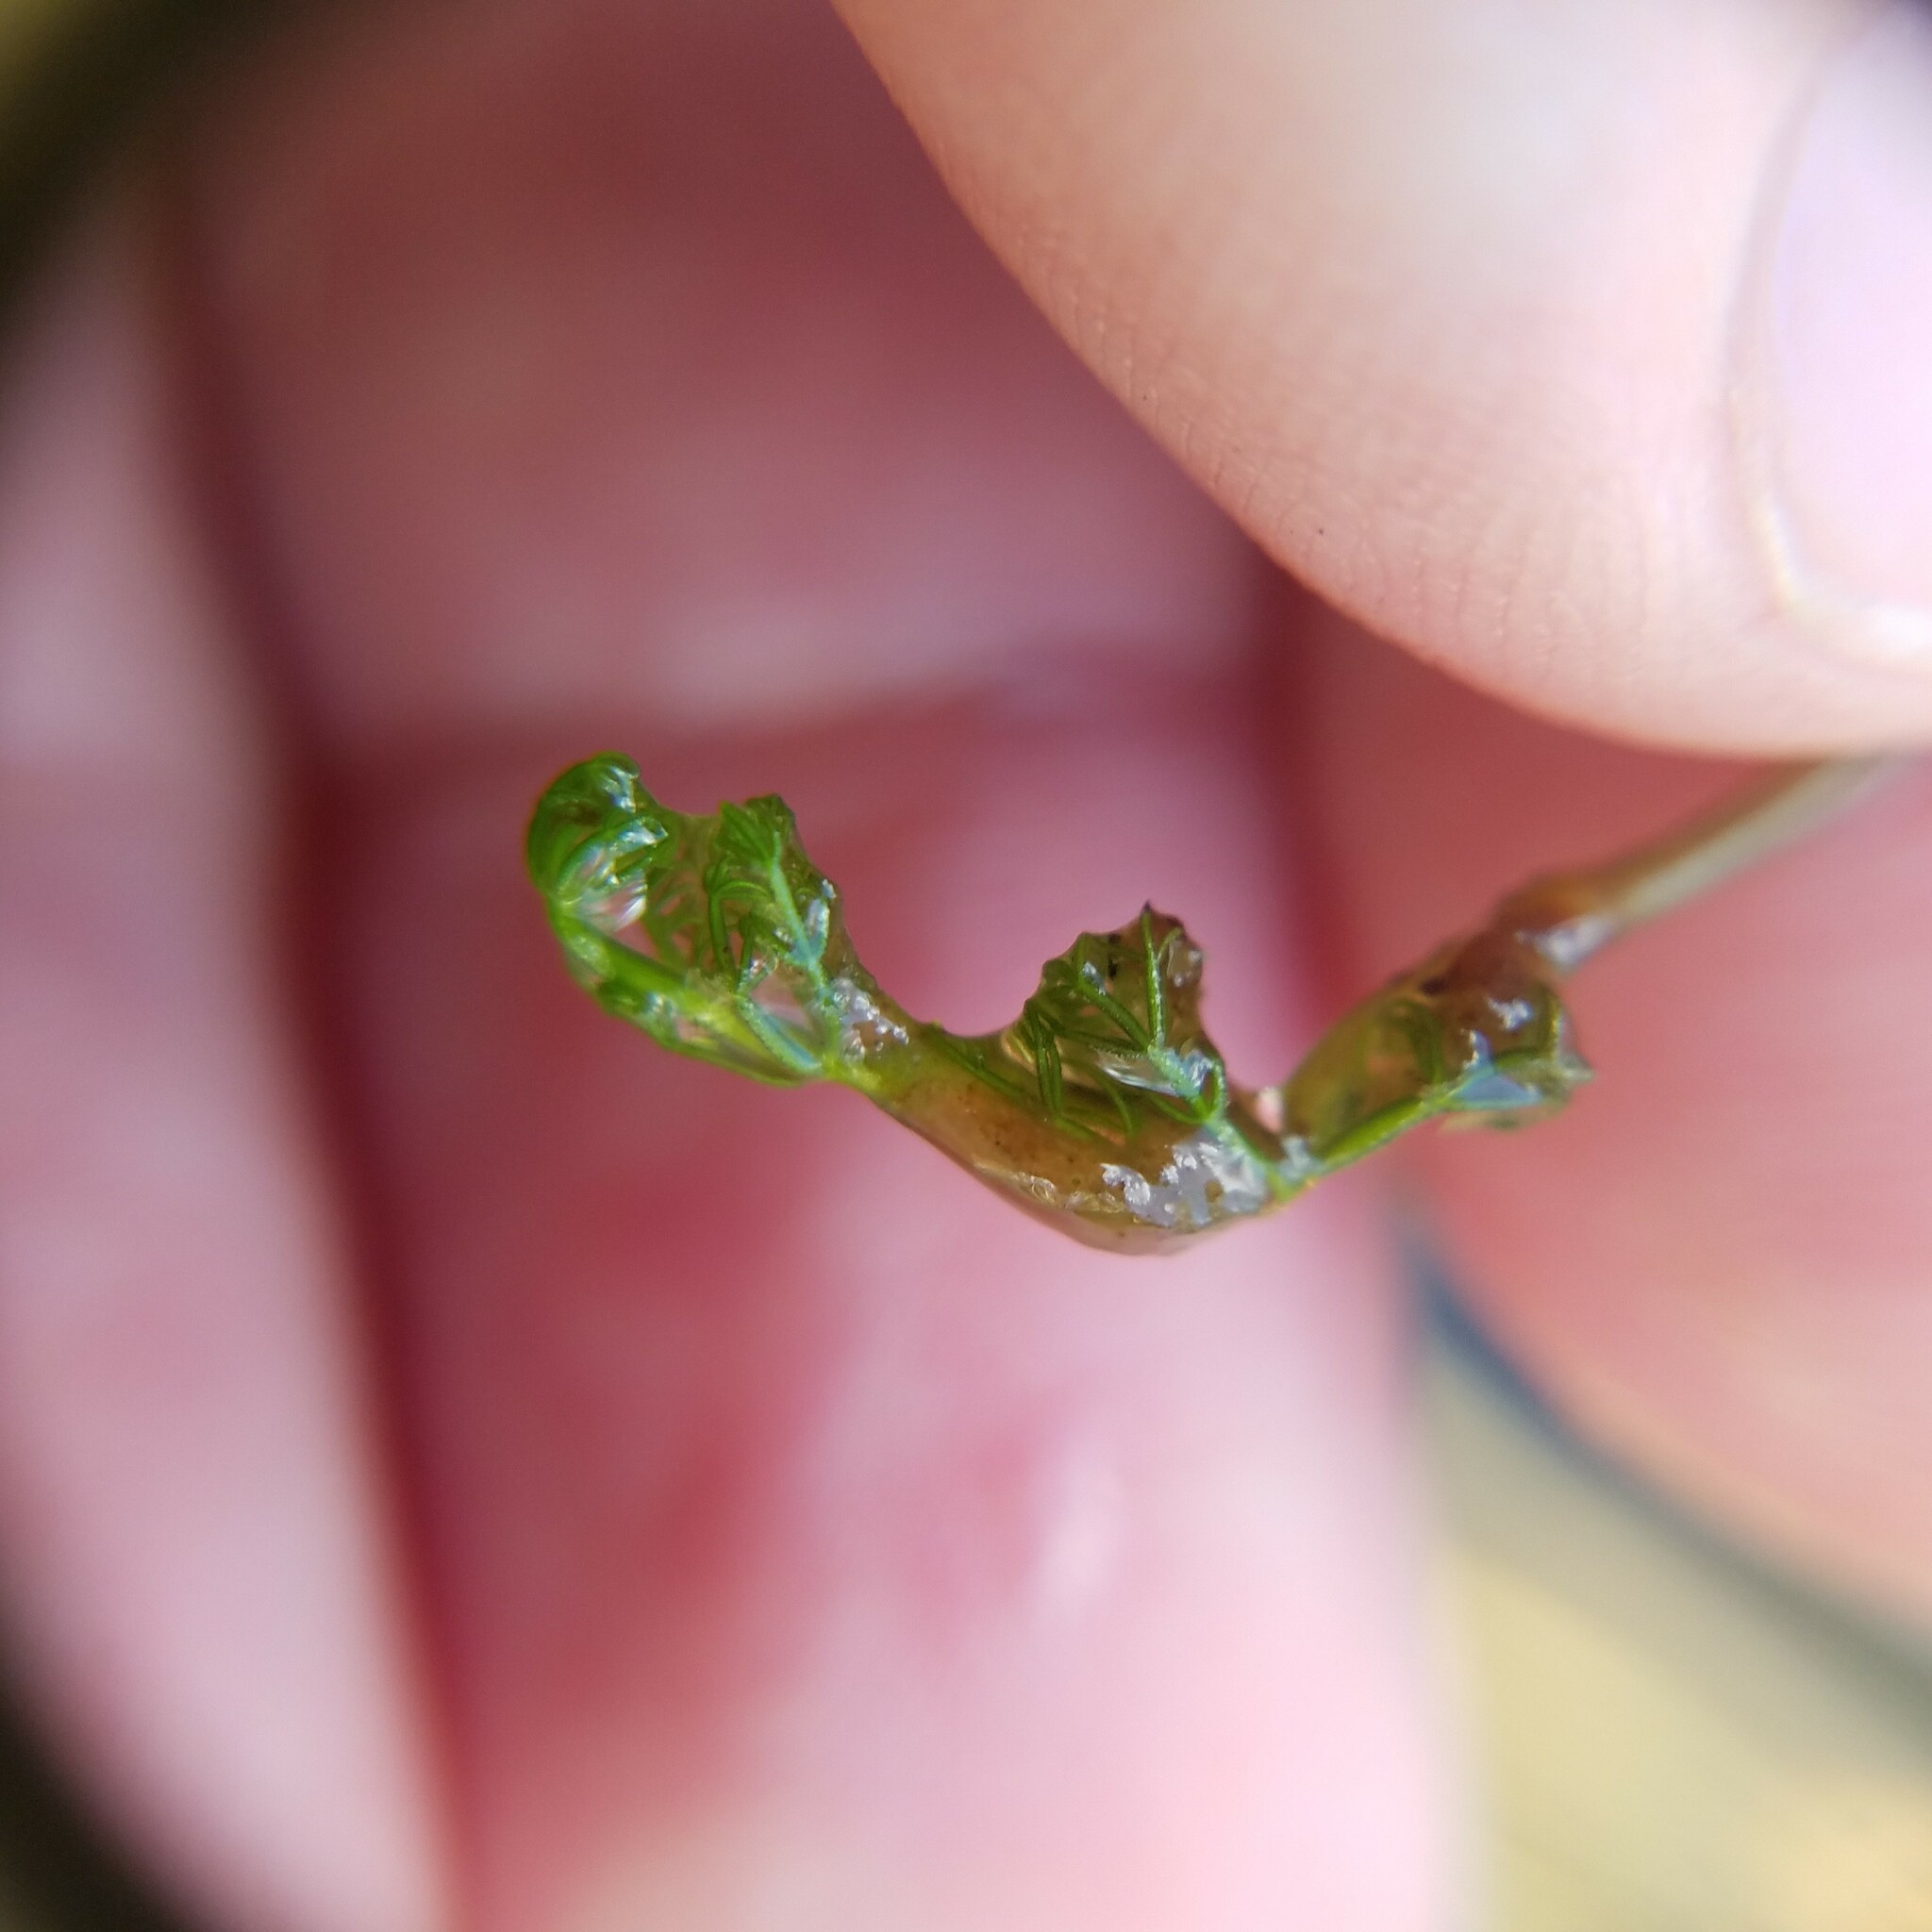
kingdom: Plantae
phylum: Tracheophyta
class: Magnoliopsida
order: Lamiales
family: Lentibulariaceae
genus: Utricularia
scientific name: Utricularia purpurea
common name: Eastern purple bladderwort
